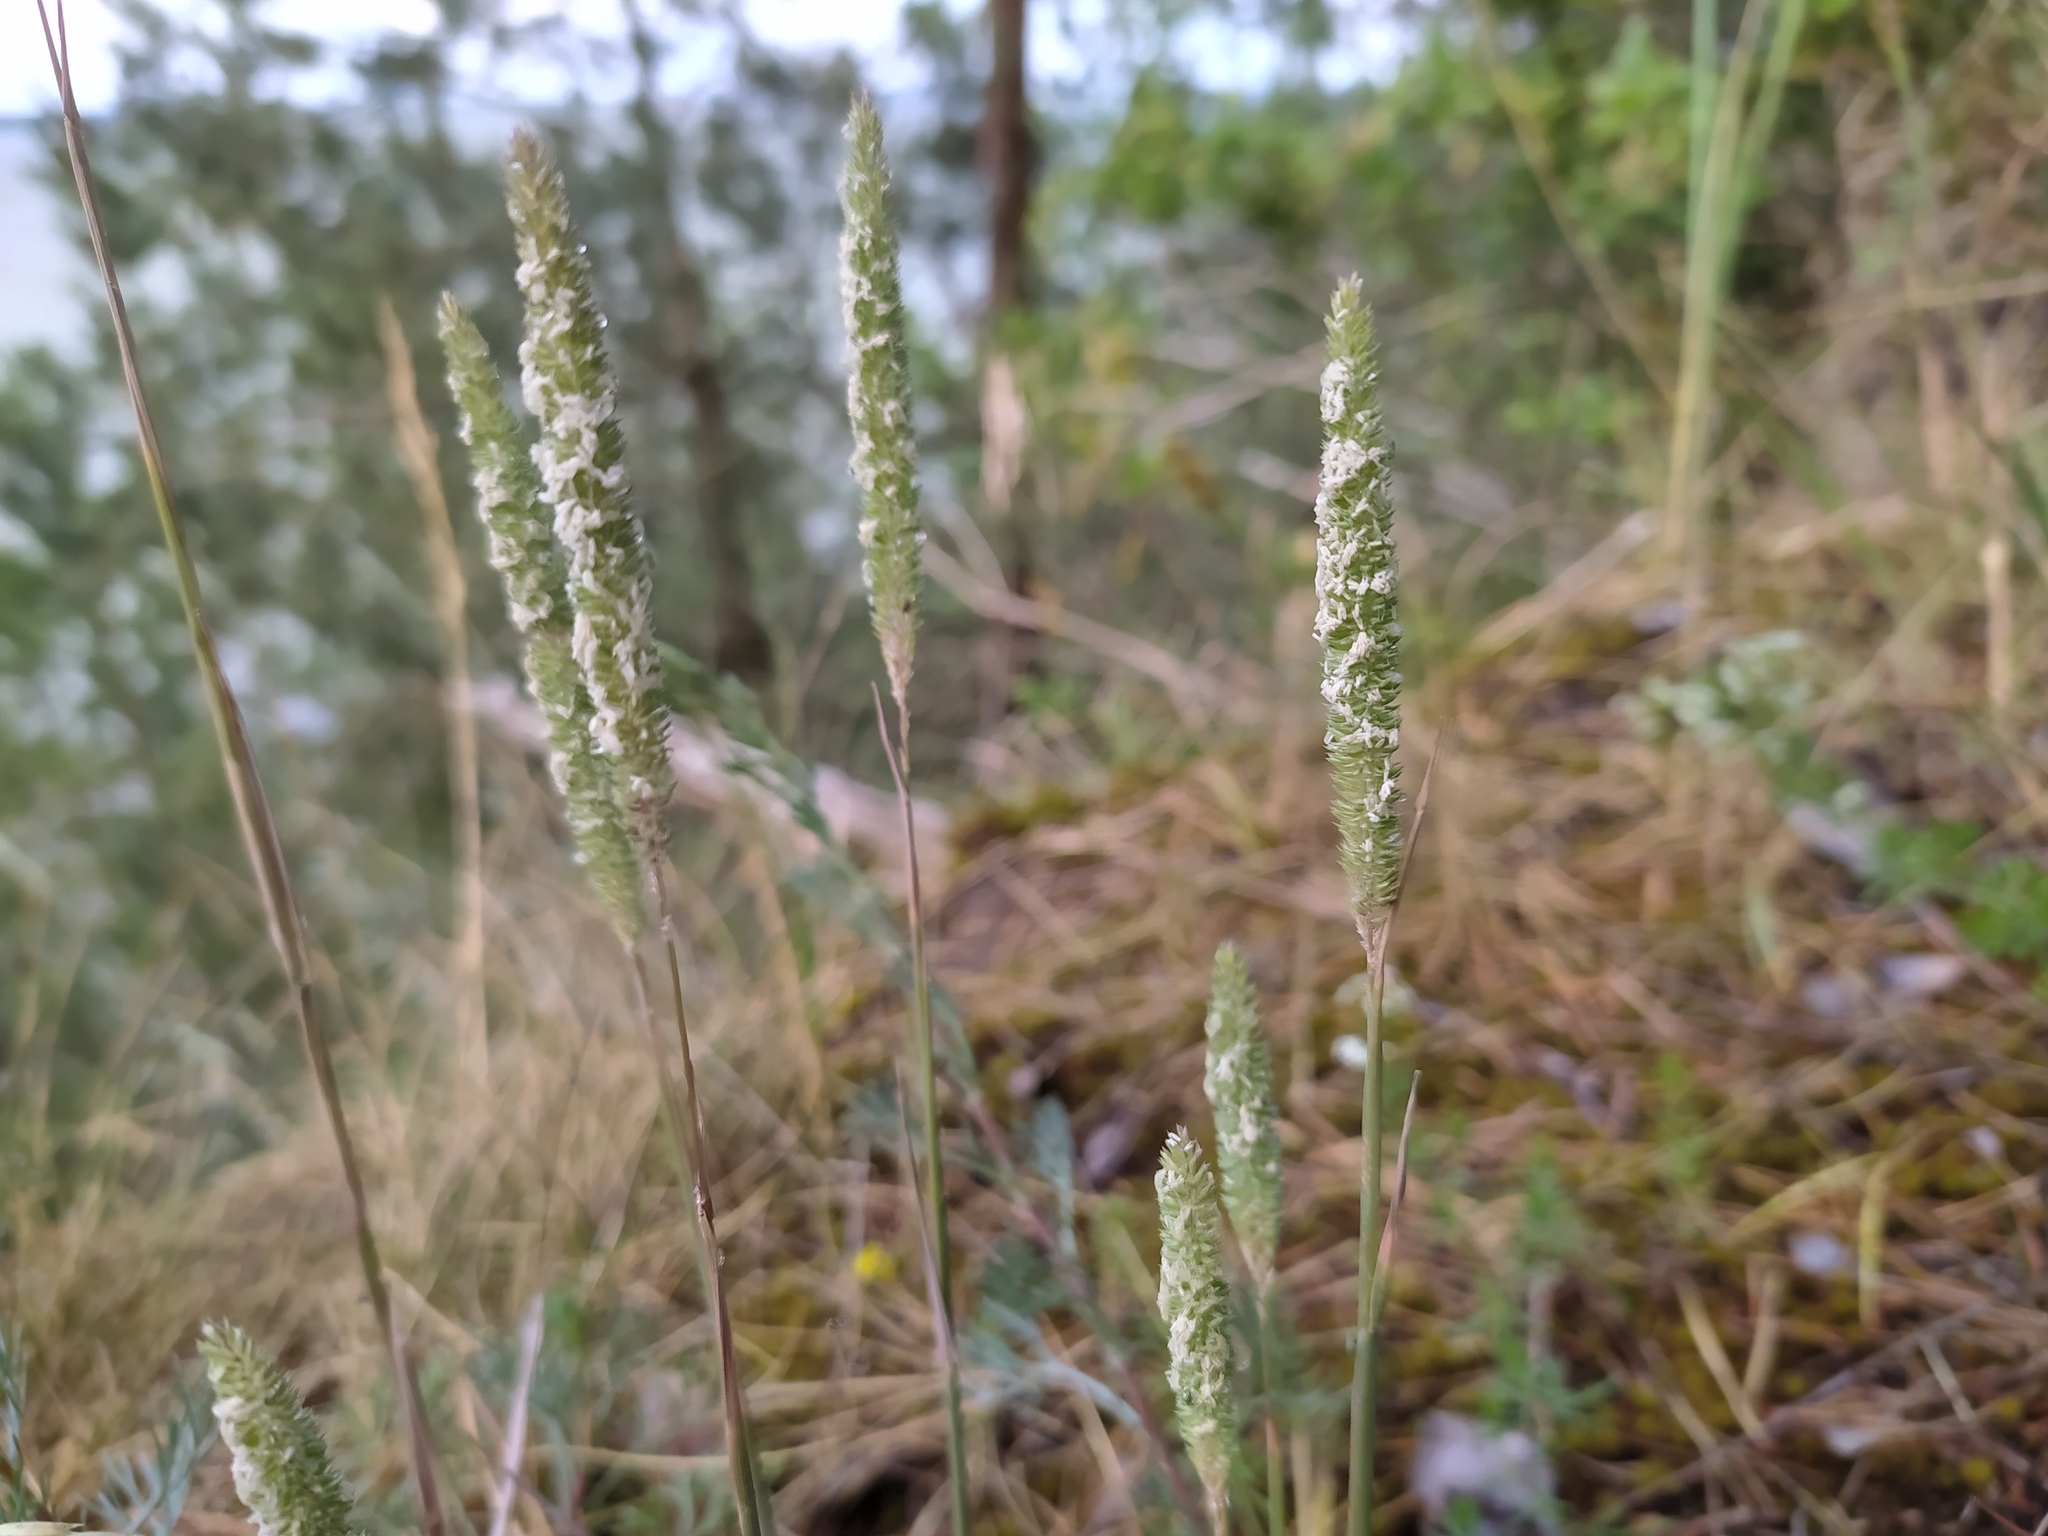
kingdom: Plantae
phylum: Tracheophyta
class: Liliopsida
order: Poales
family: Poaceae
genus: Phleum
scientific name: Phleum phleoides
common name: Purple-stem cat's-tail
